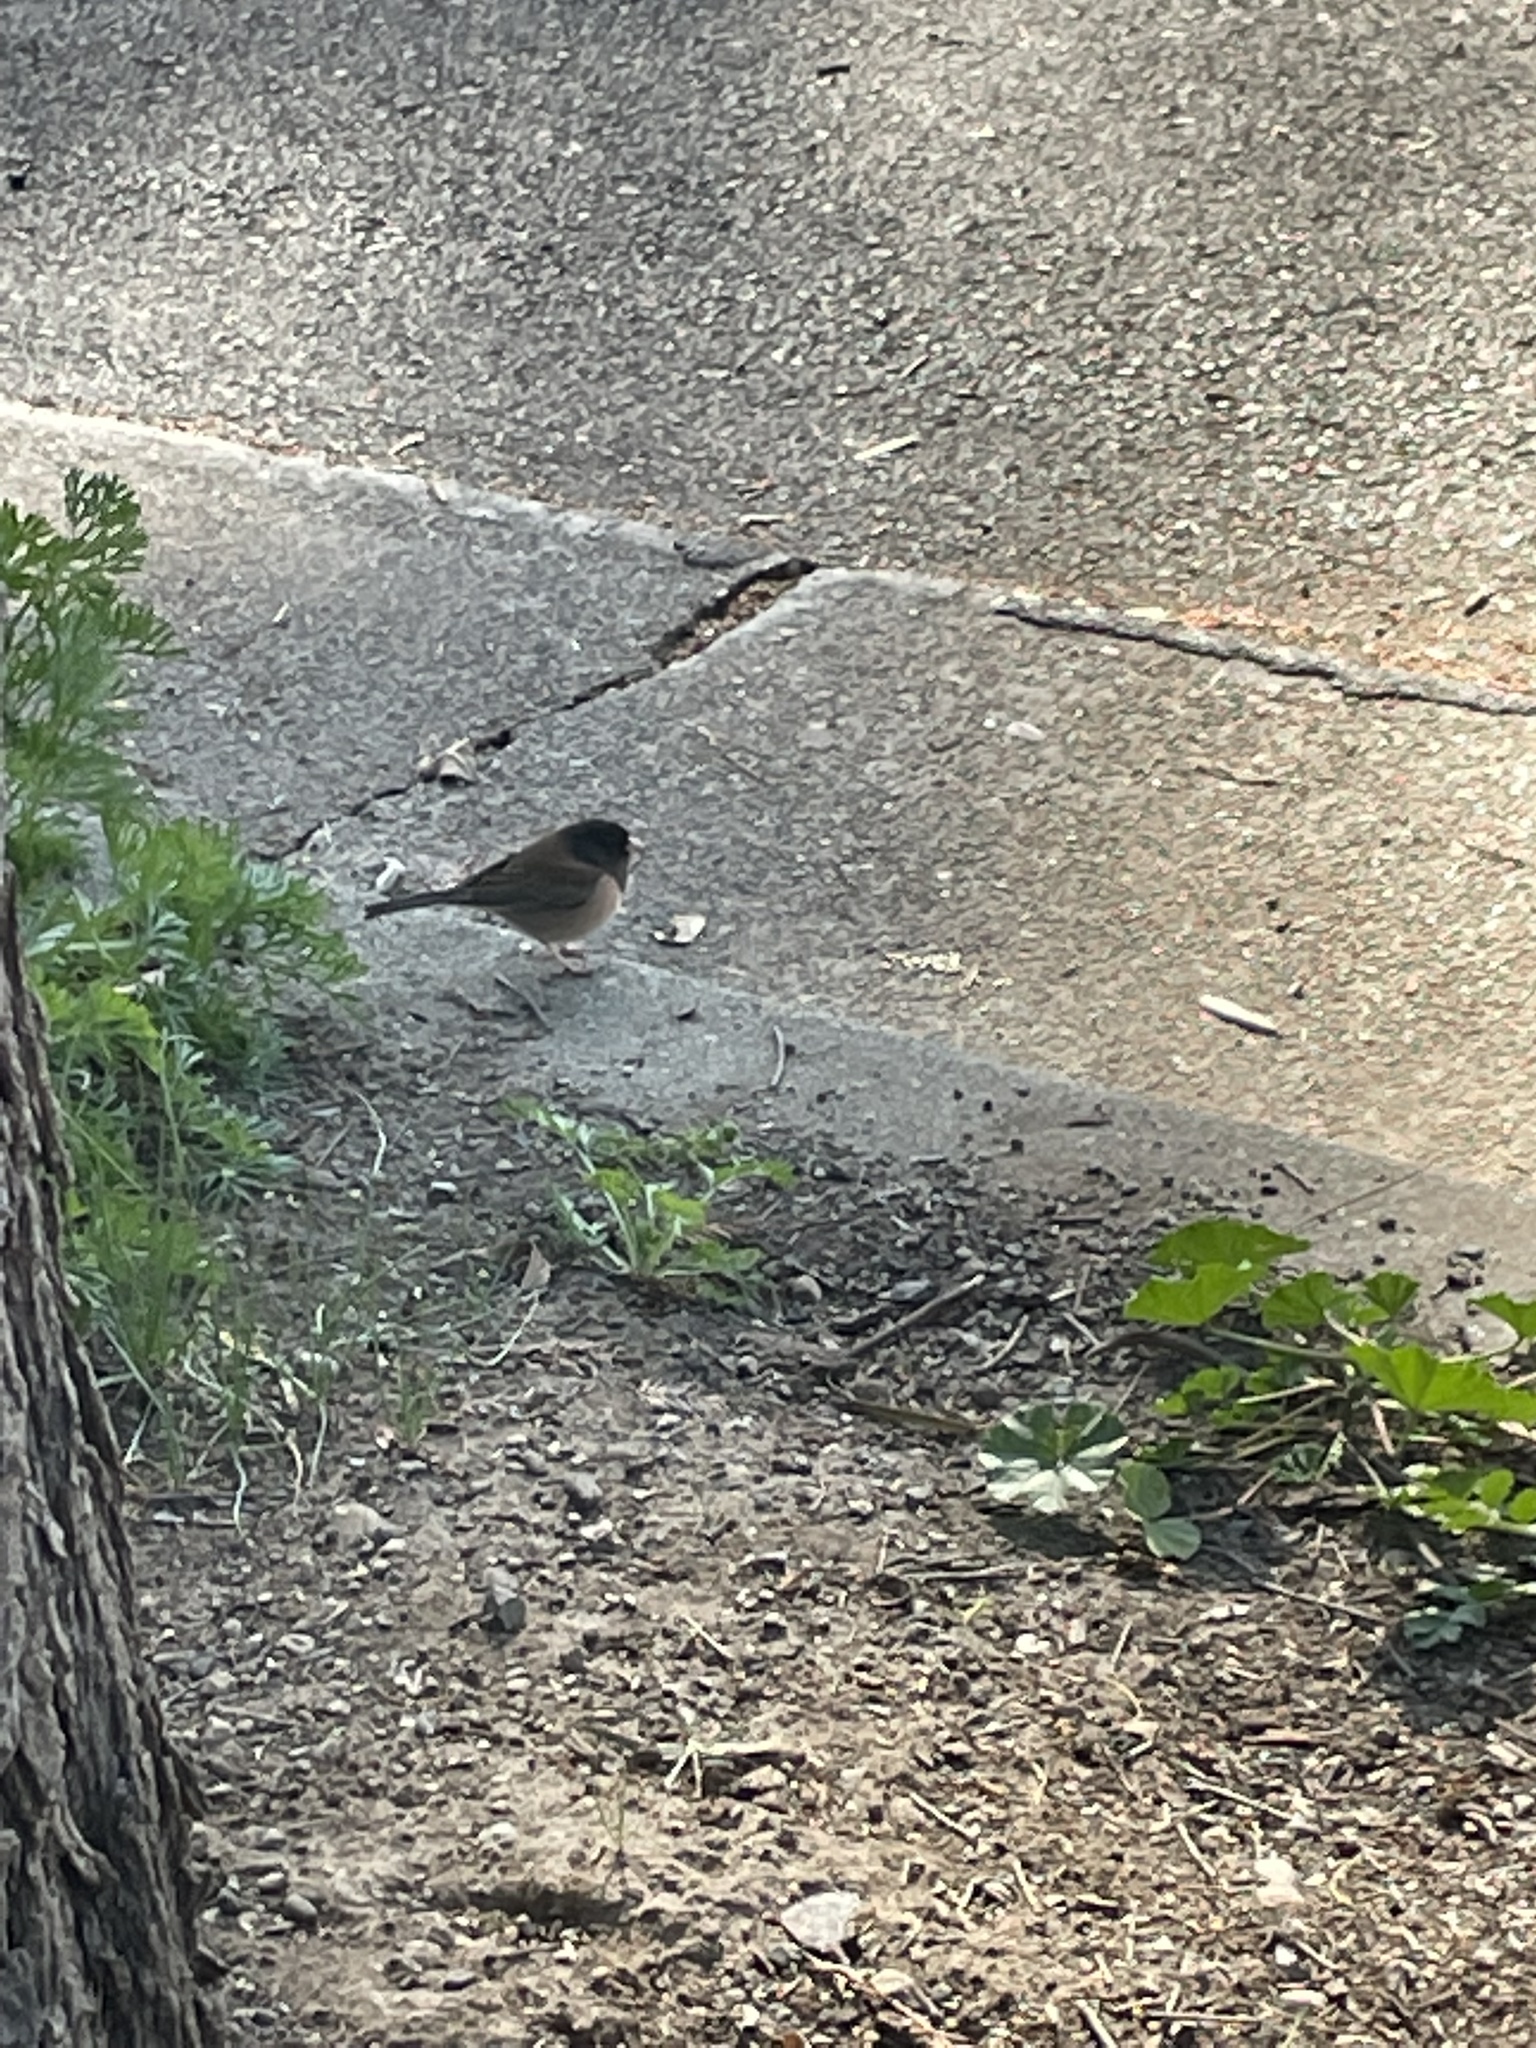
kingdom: Animalia
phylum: Chordata
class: Aves
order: Passeriformes
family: Passerellidae
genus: Junco
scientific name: Junco hyemalis
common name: Dark-eyed junco
